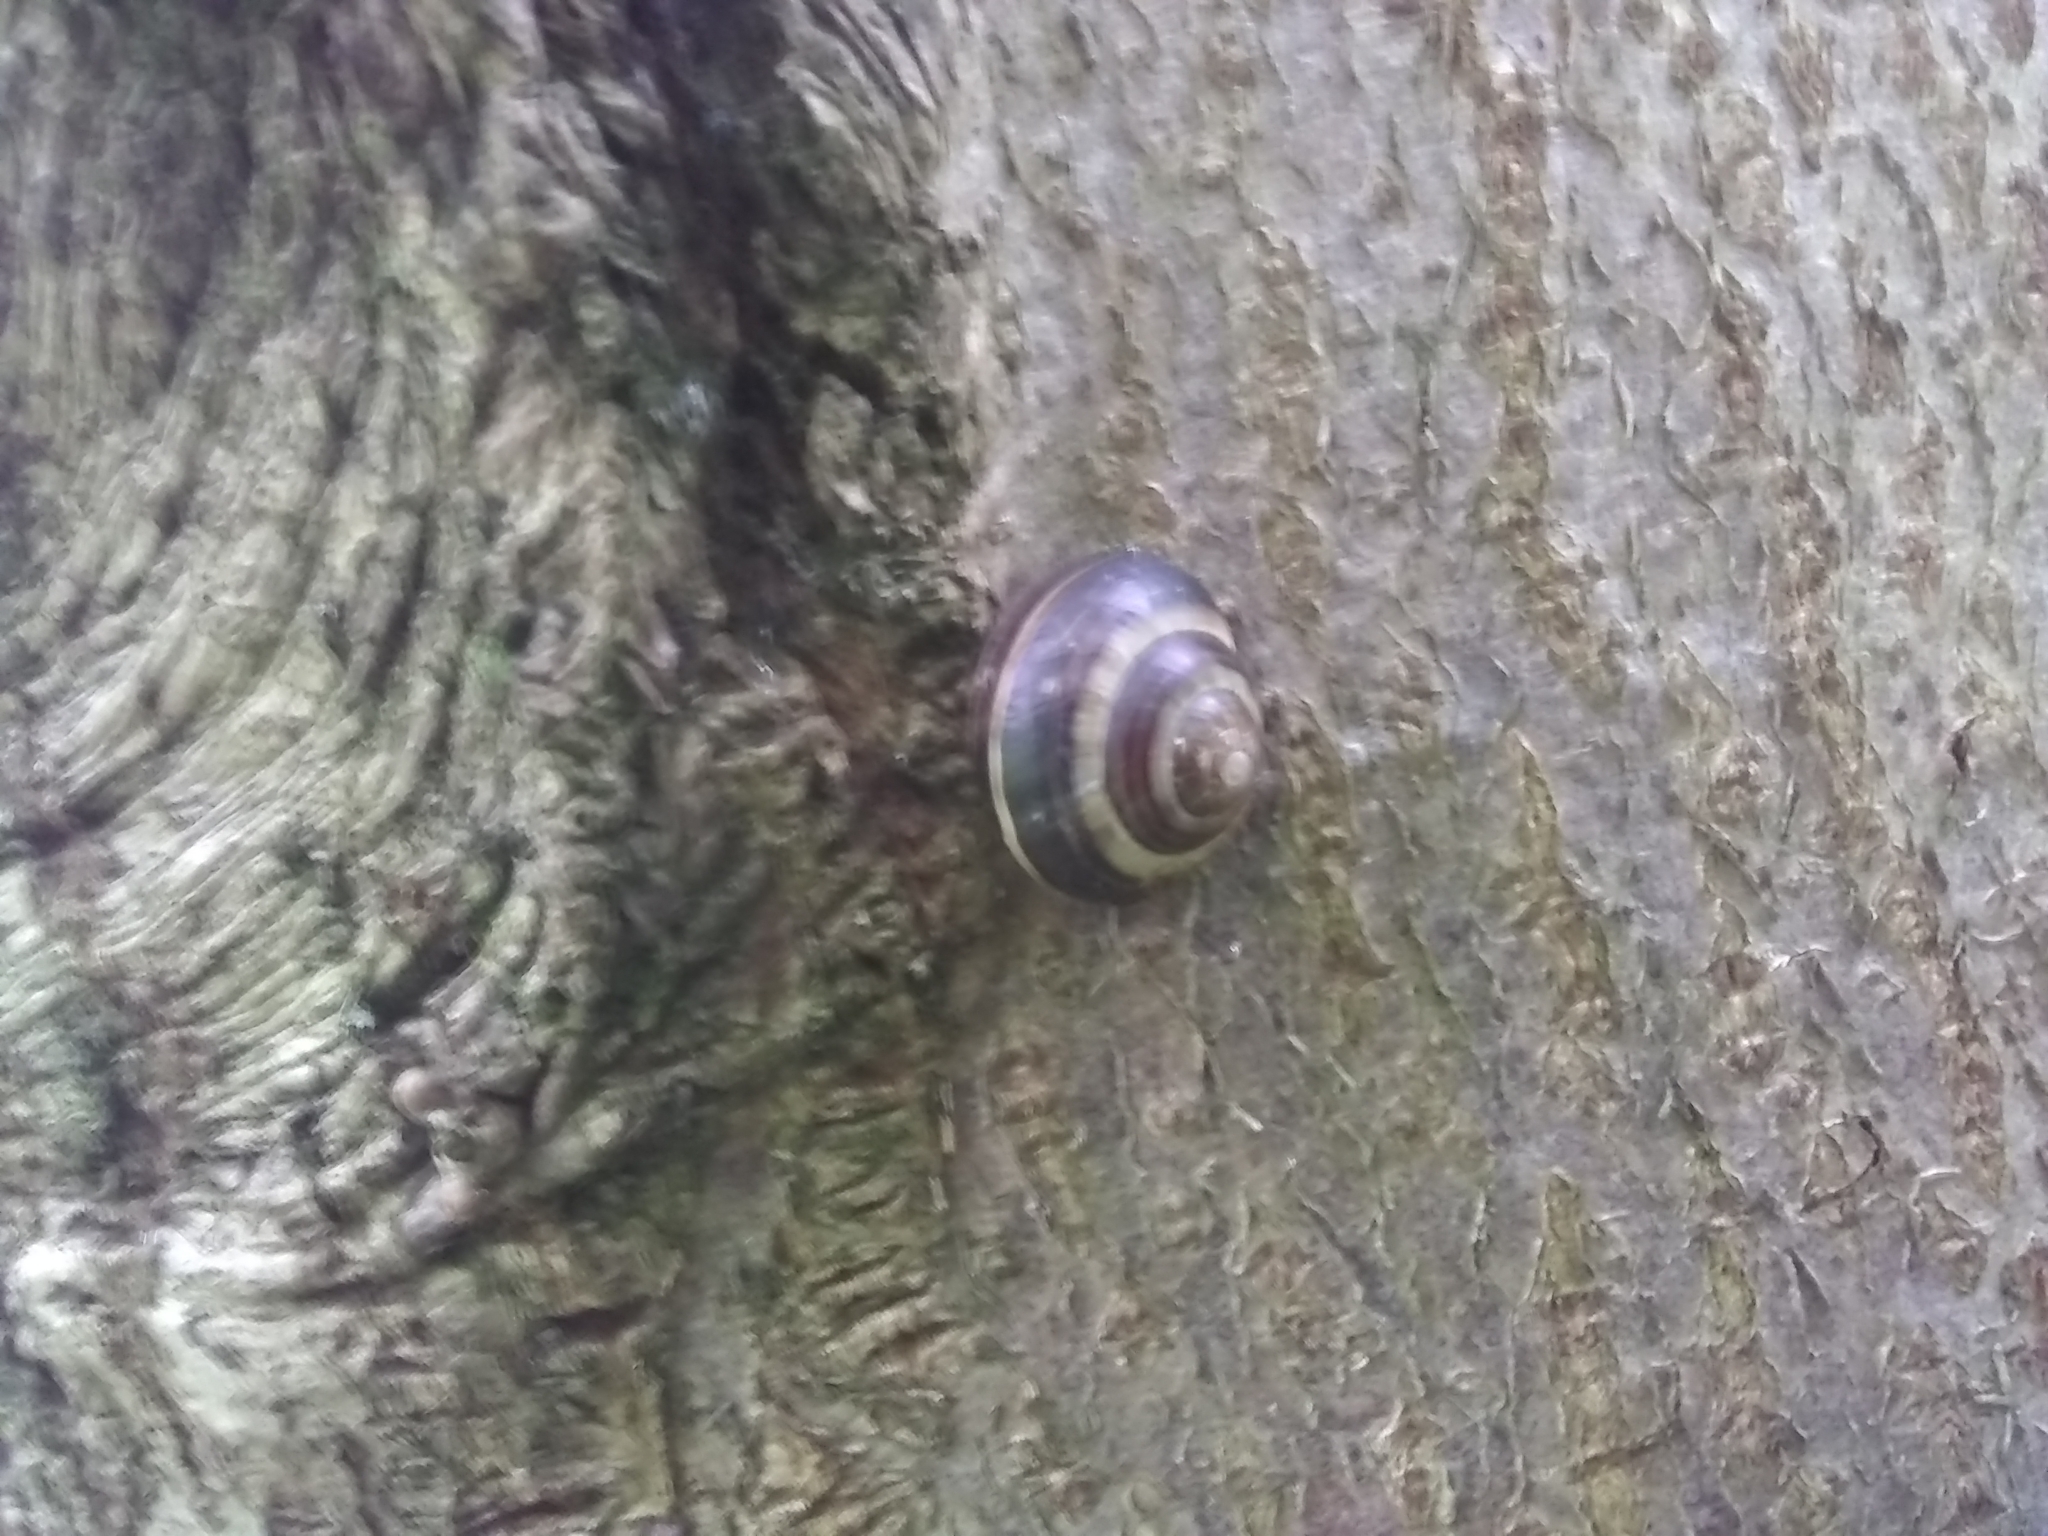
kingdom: Animalia
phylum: Mollusca
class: Gastropoda
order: Stylommatophora
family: Helicidae
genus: Cepaea
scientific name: Cepaea nemoralis
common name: Grovesnail
